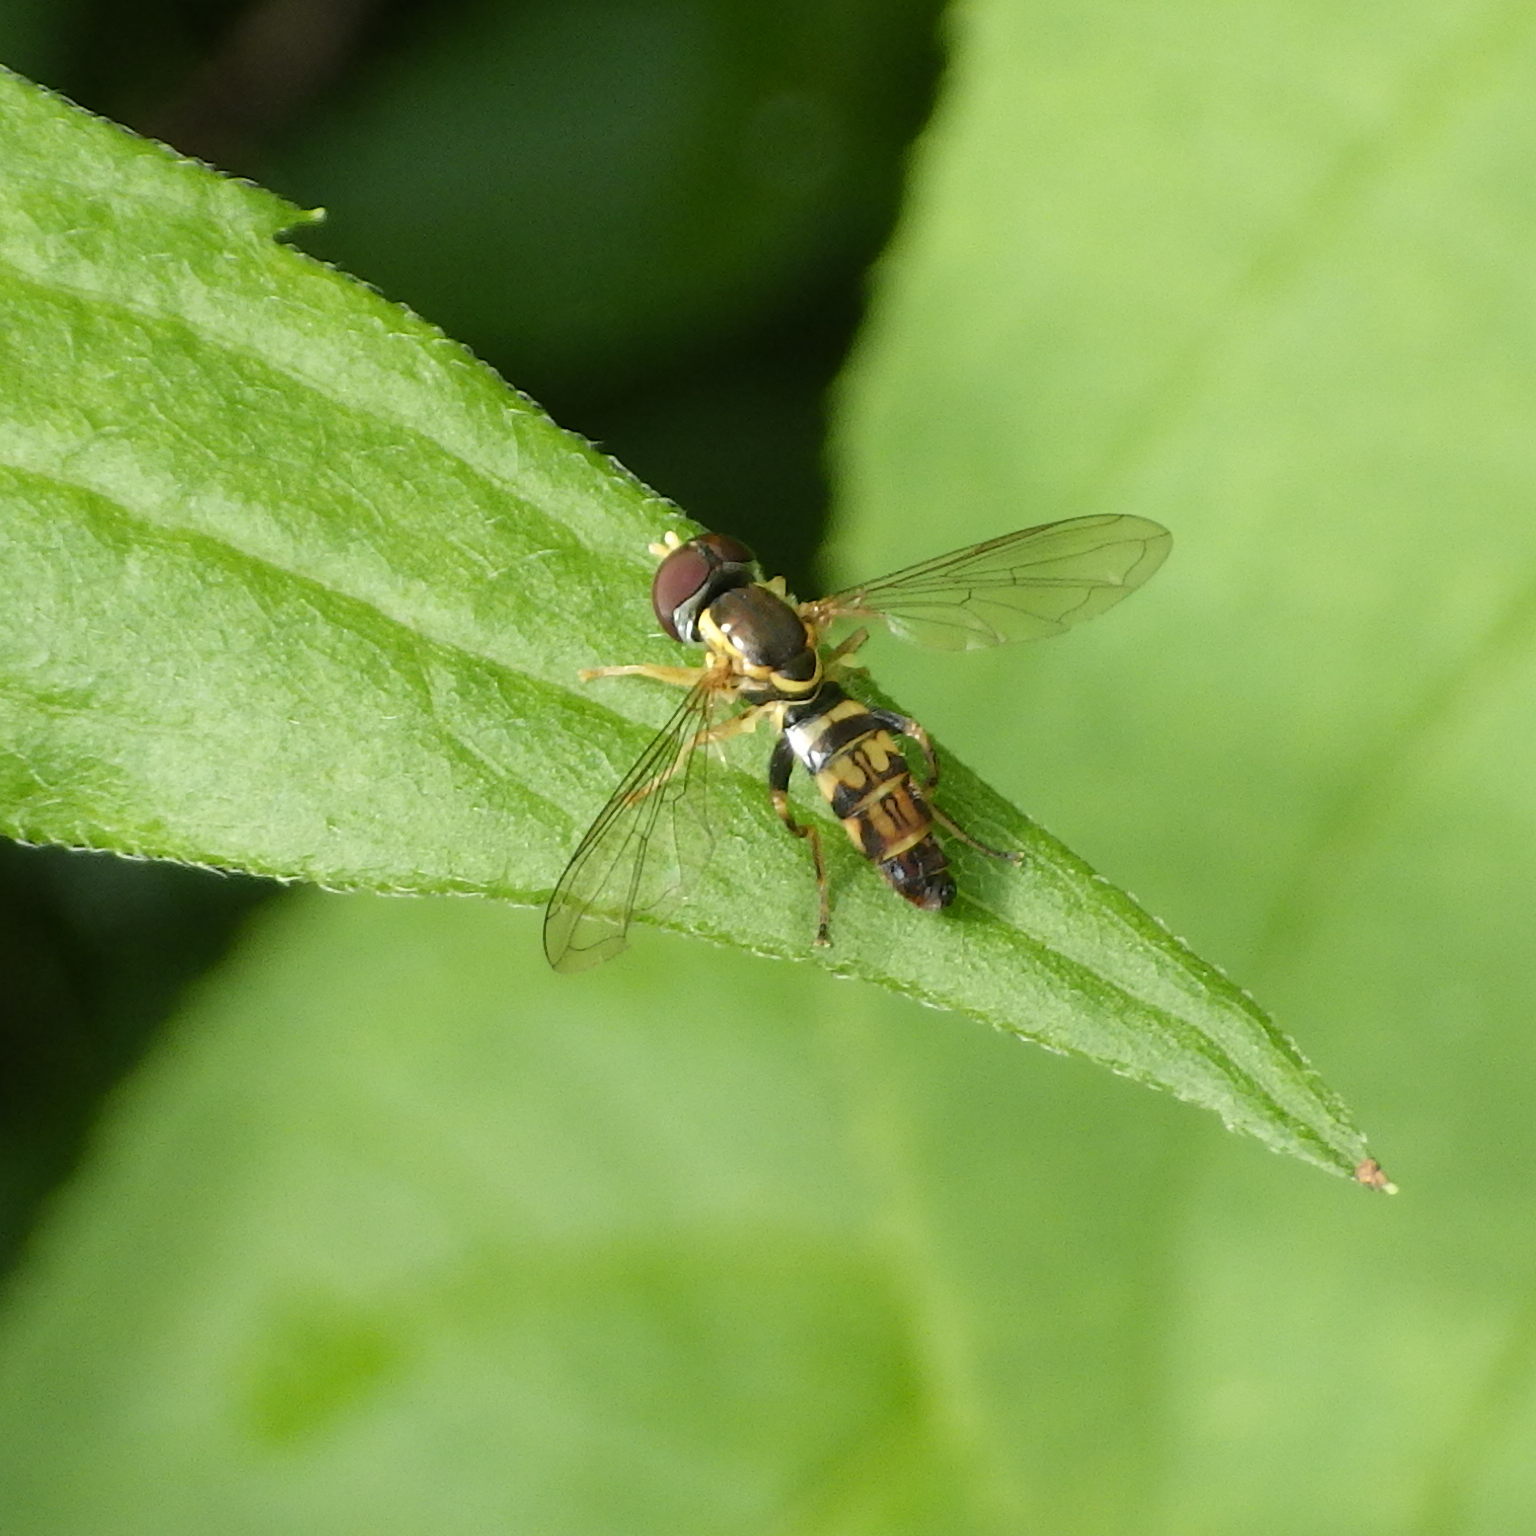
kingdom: Animalia
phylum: Arthropoda
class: Insecta
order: Diptera
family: Syrphidae
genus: Toxomerus
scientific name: Toxomerus geminatus
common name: Eastern calligrapher
